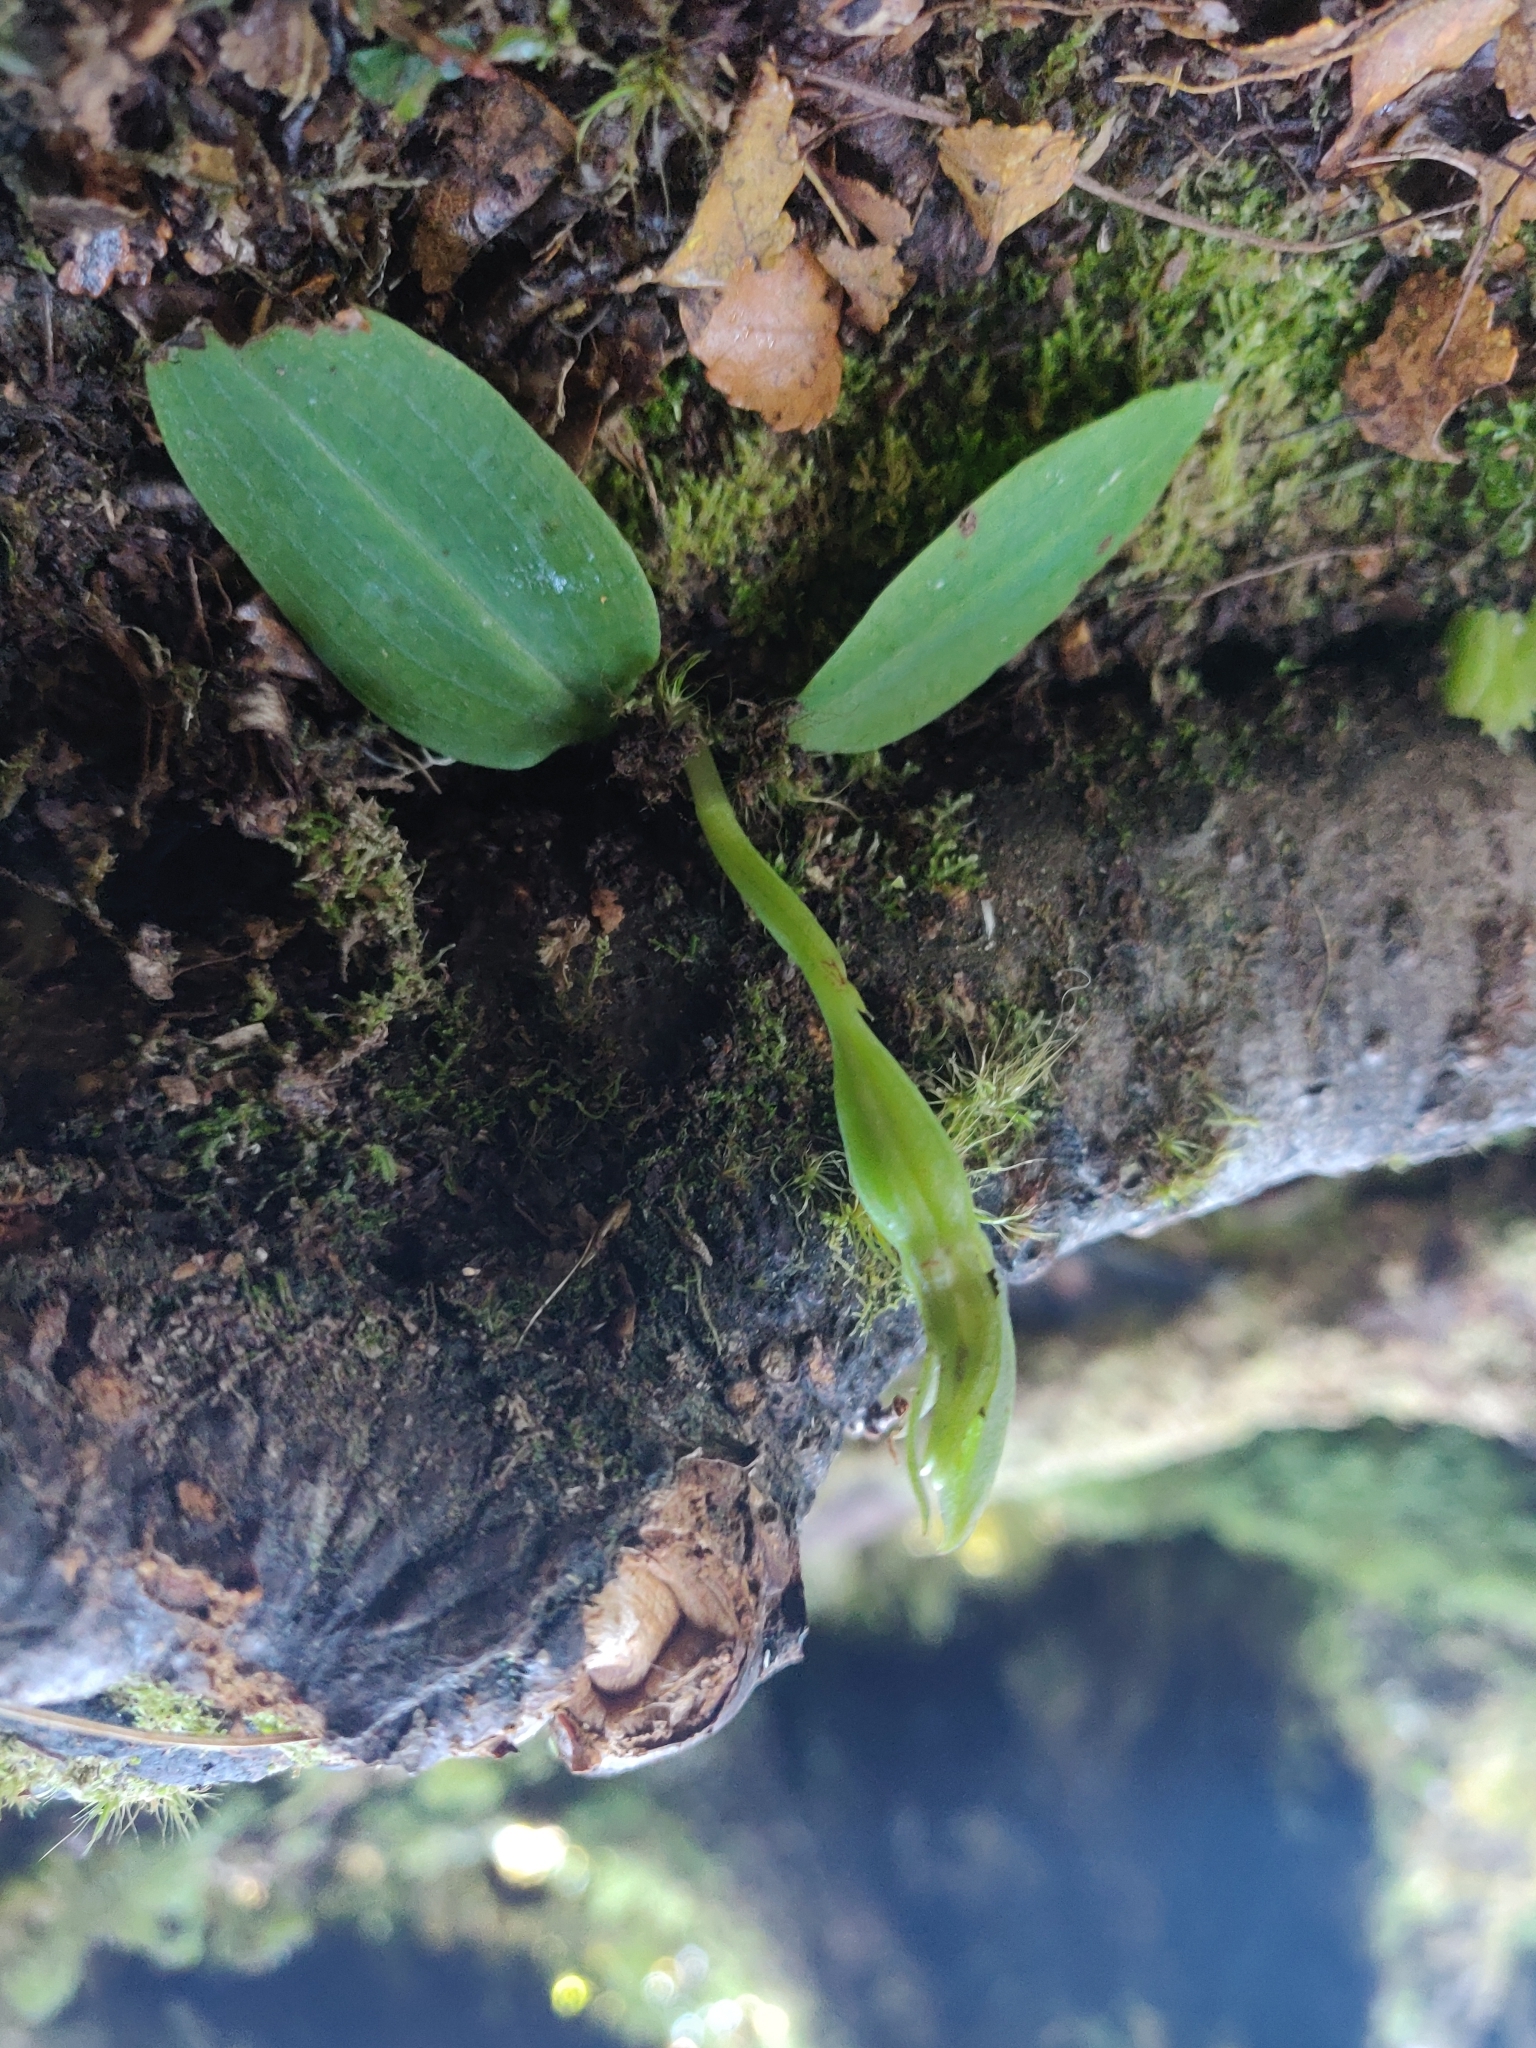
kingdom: Plantae
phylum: Tracheophyta
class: Liliopsida
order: Asparagales
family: Orchidaceae
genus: Chiloglottis
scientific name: Chiloglottis cornuta
